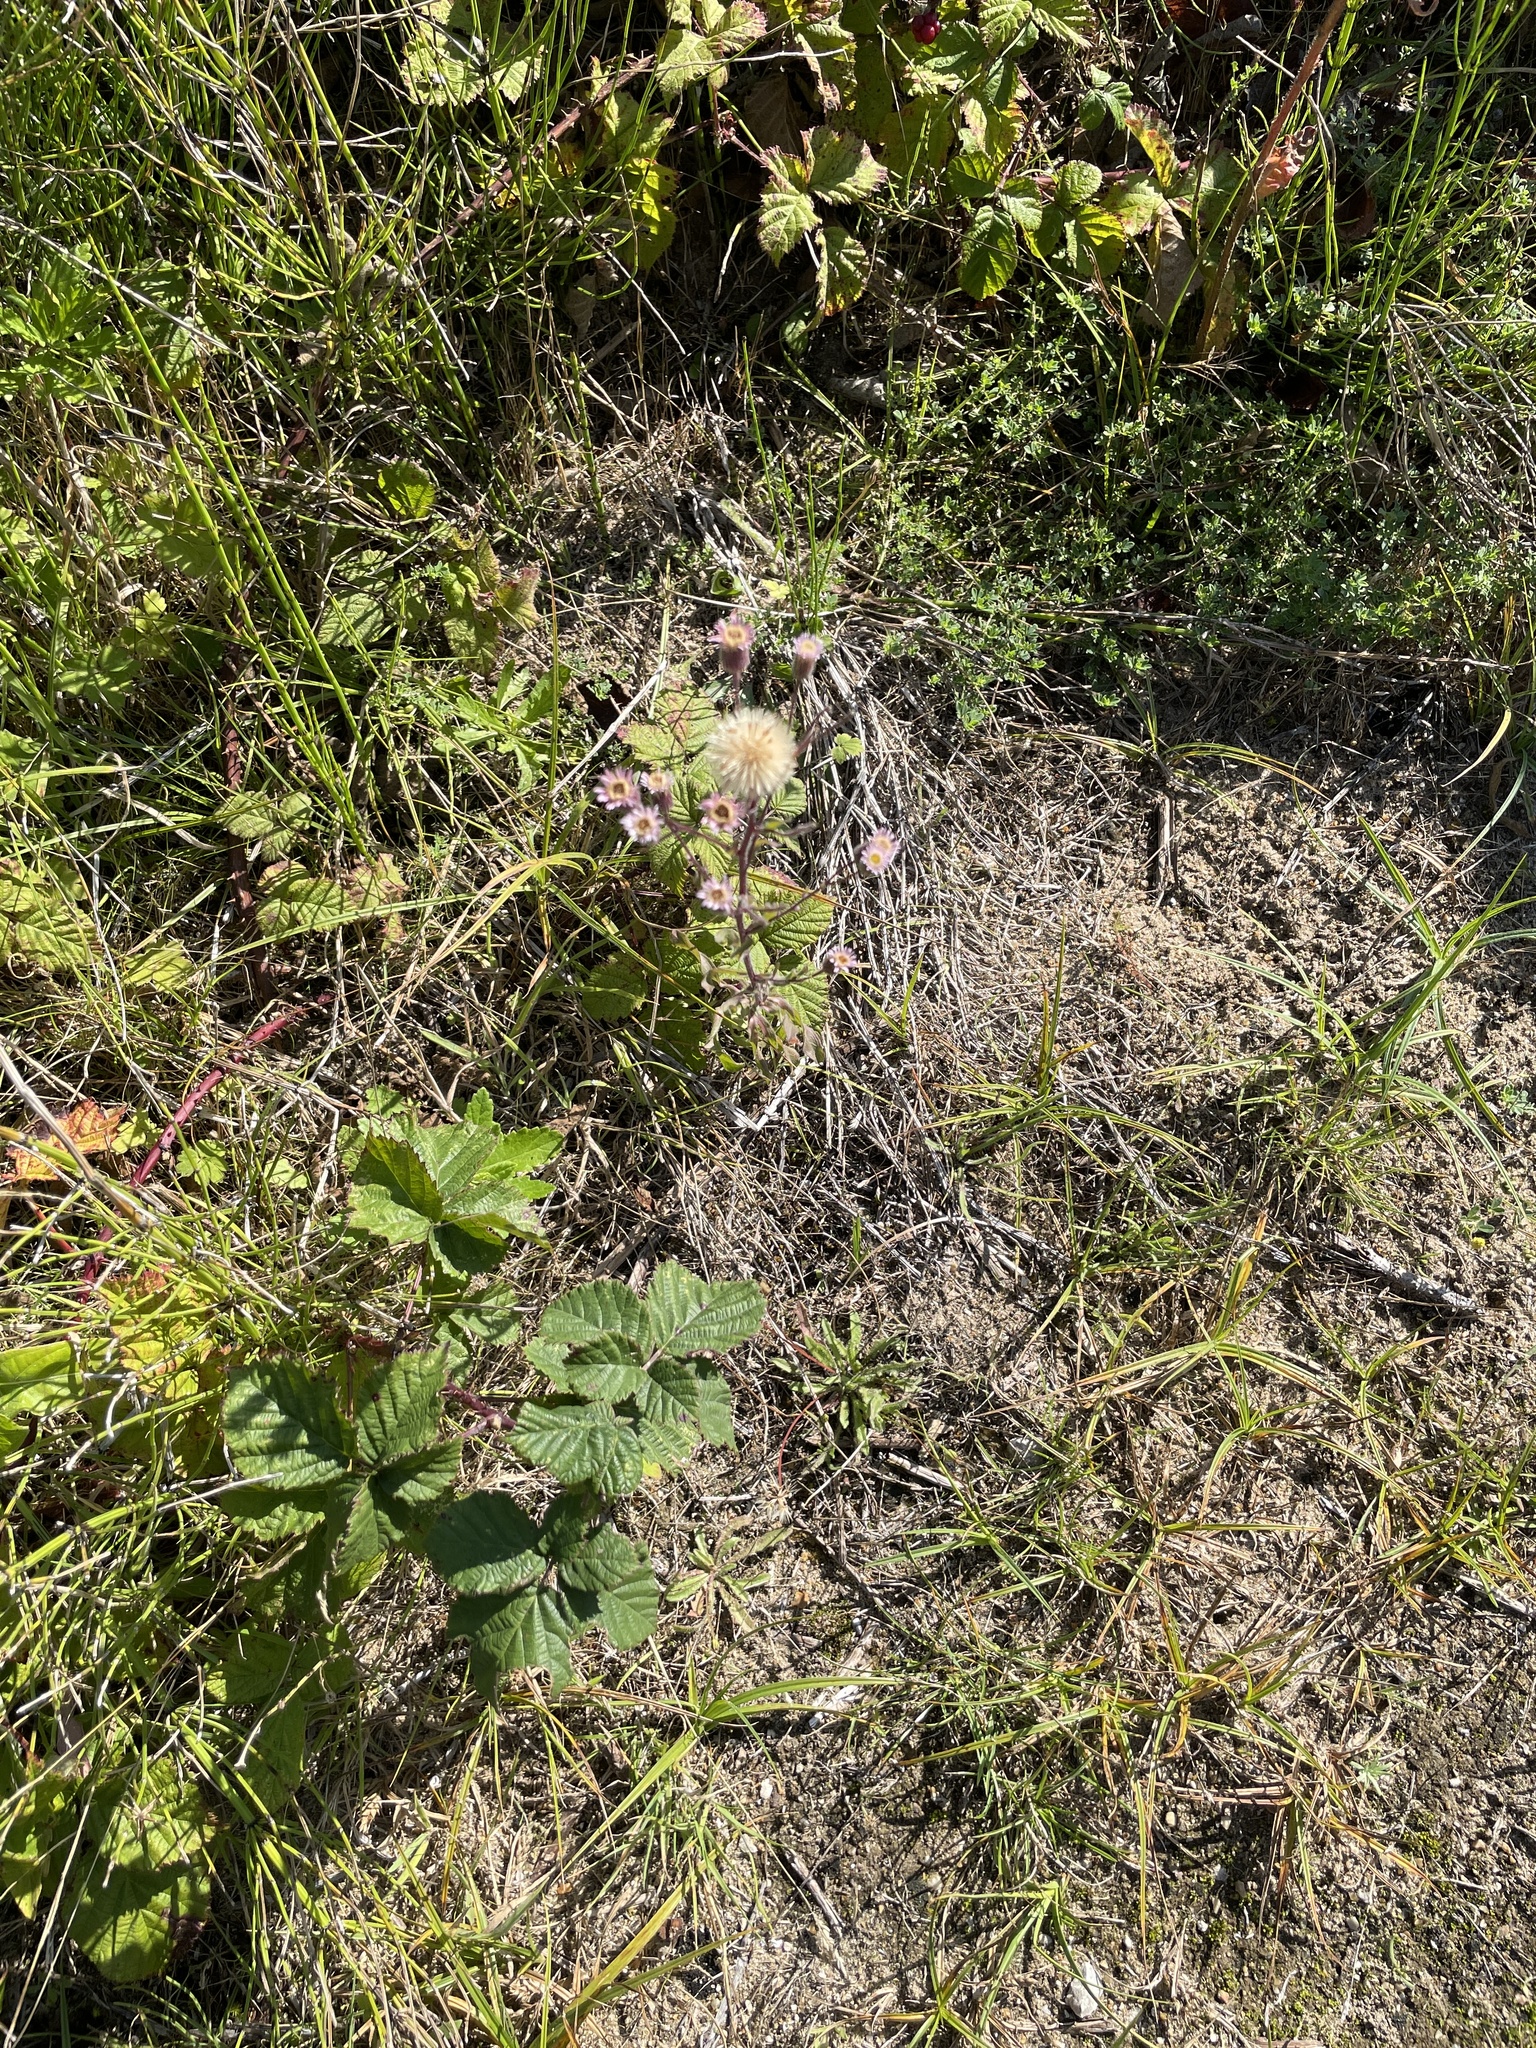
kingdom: Plantae
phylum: Tracheophyta
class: Magnoliopsida
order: Asterales
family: Asteraceae
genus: Erigeron
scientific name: Erigeron acris
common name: Blue fleabane
